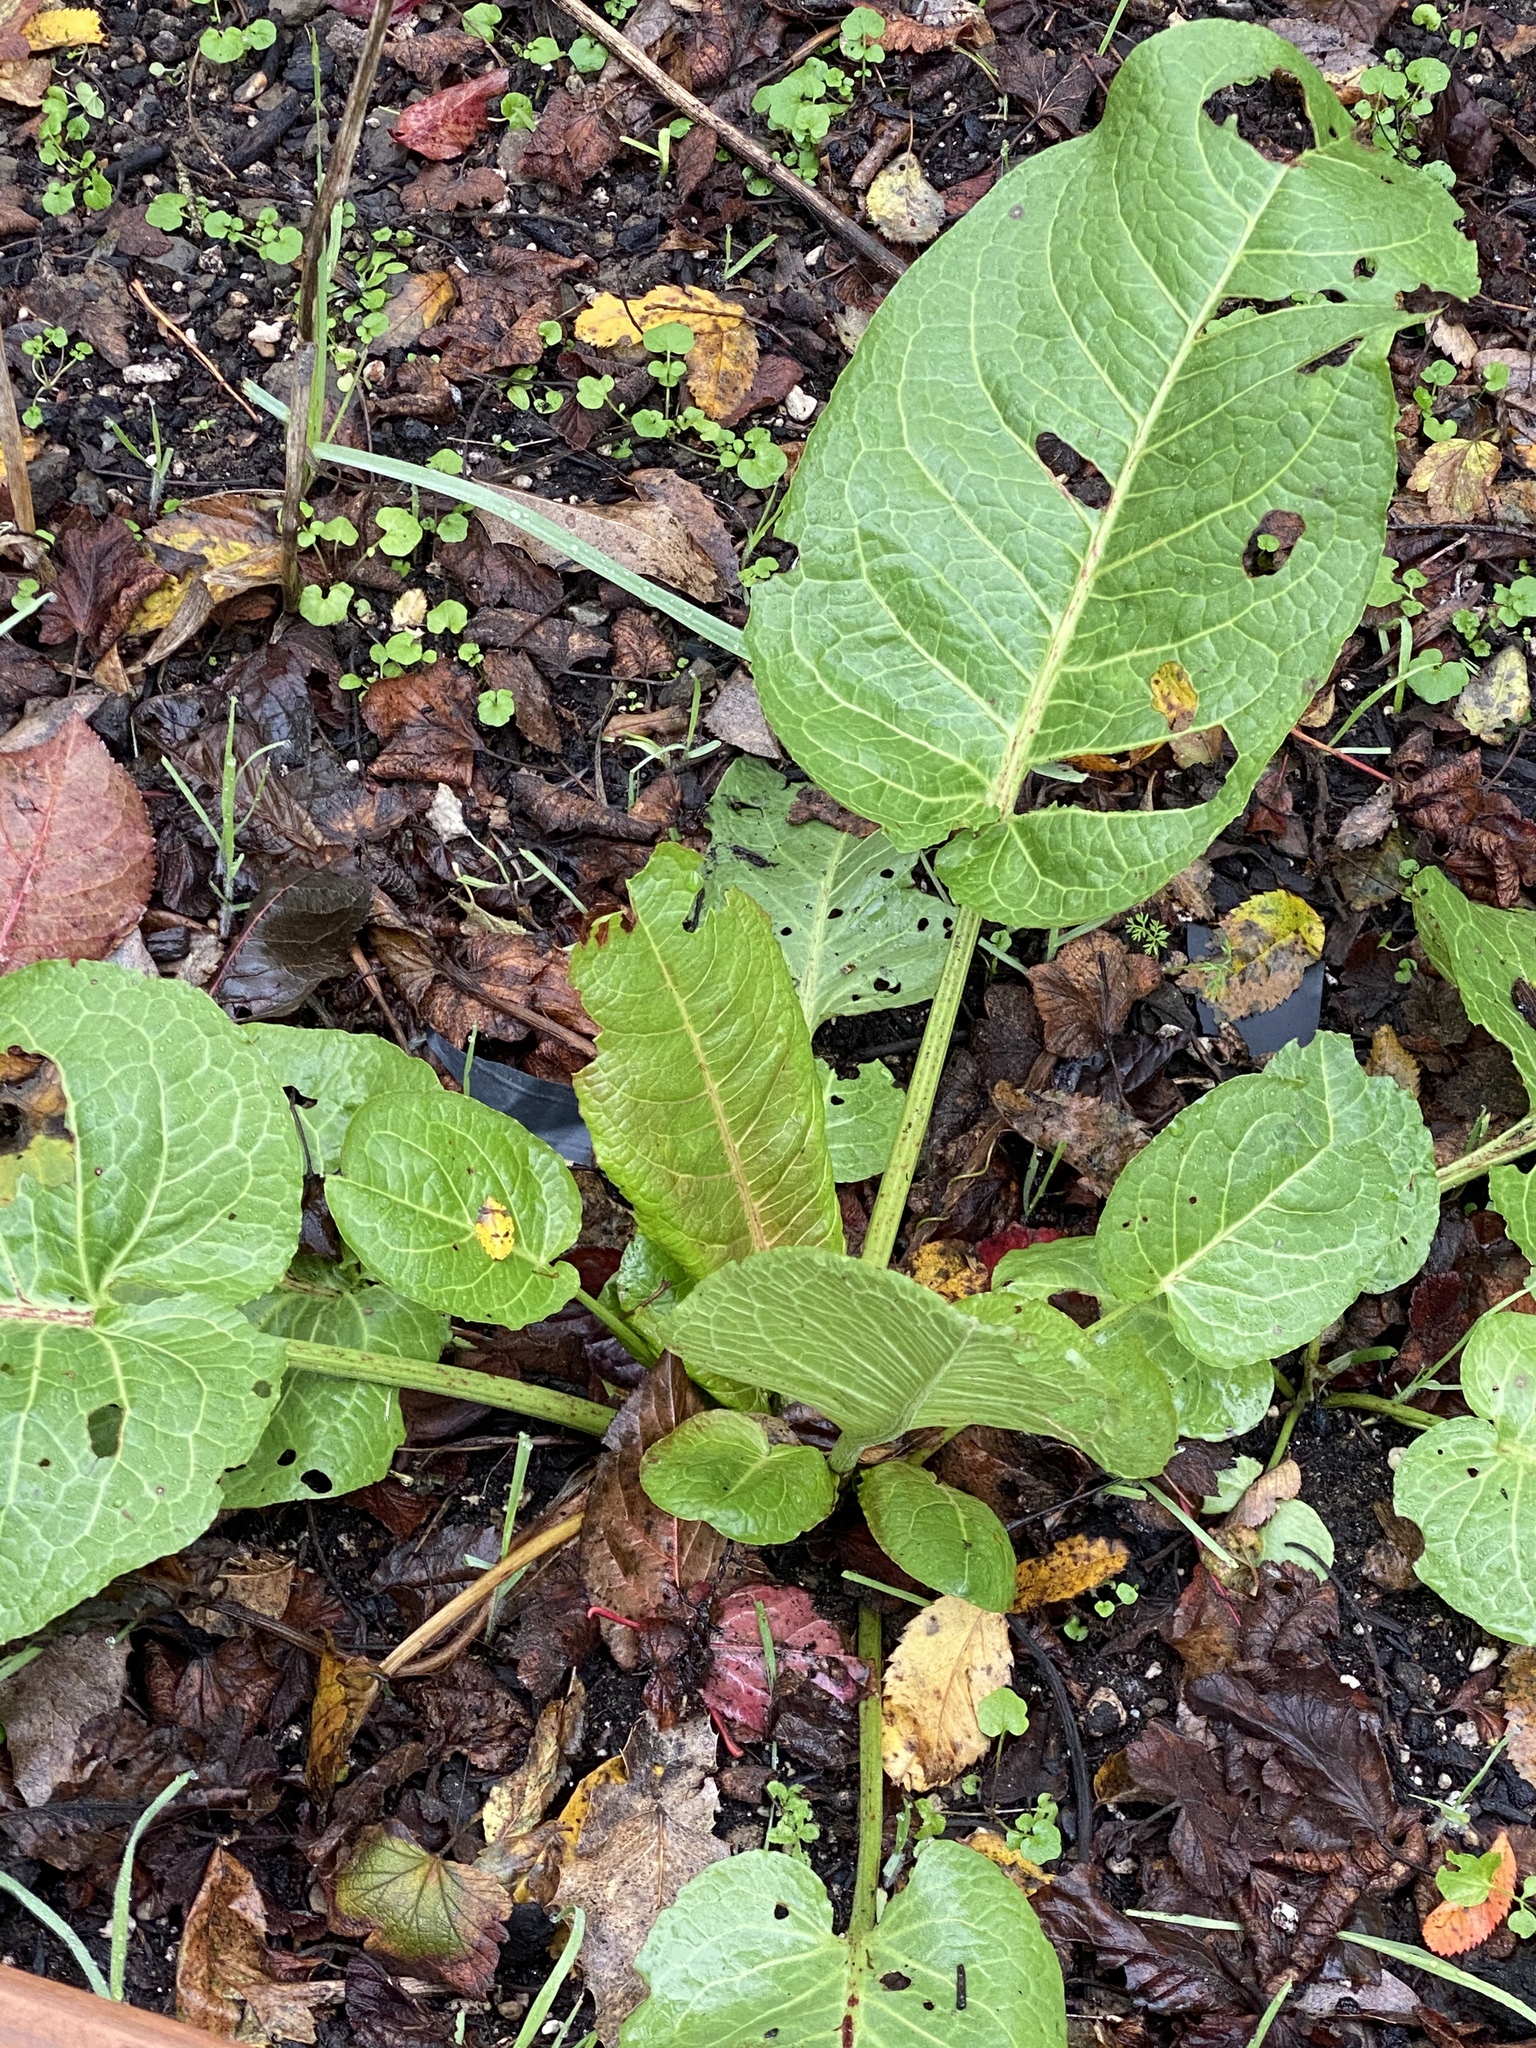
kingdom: Plantae
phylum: Tracheophyta
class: Magnoliopsida
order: Caryophyllales
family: Polygonaceae
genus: Rumex
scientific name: Rumex obtusifolius
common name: Bitter dock
